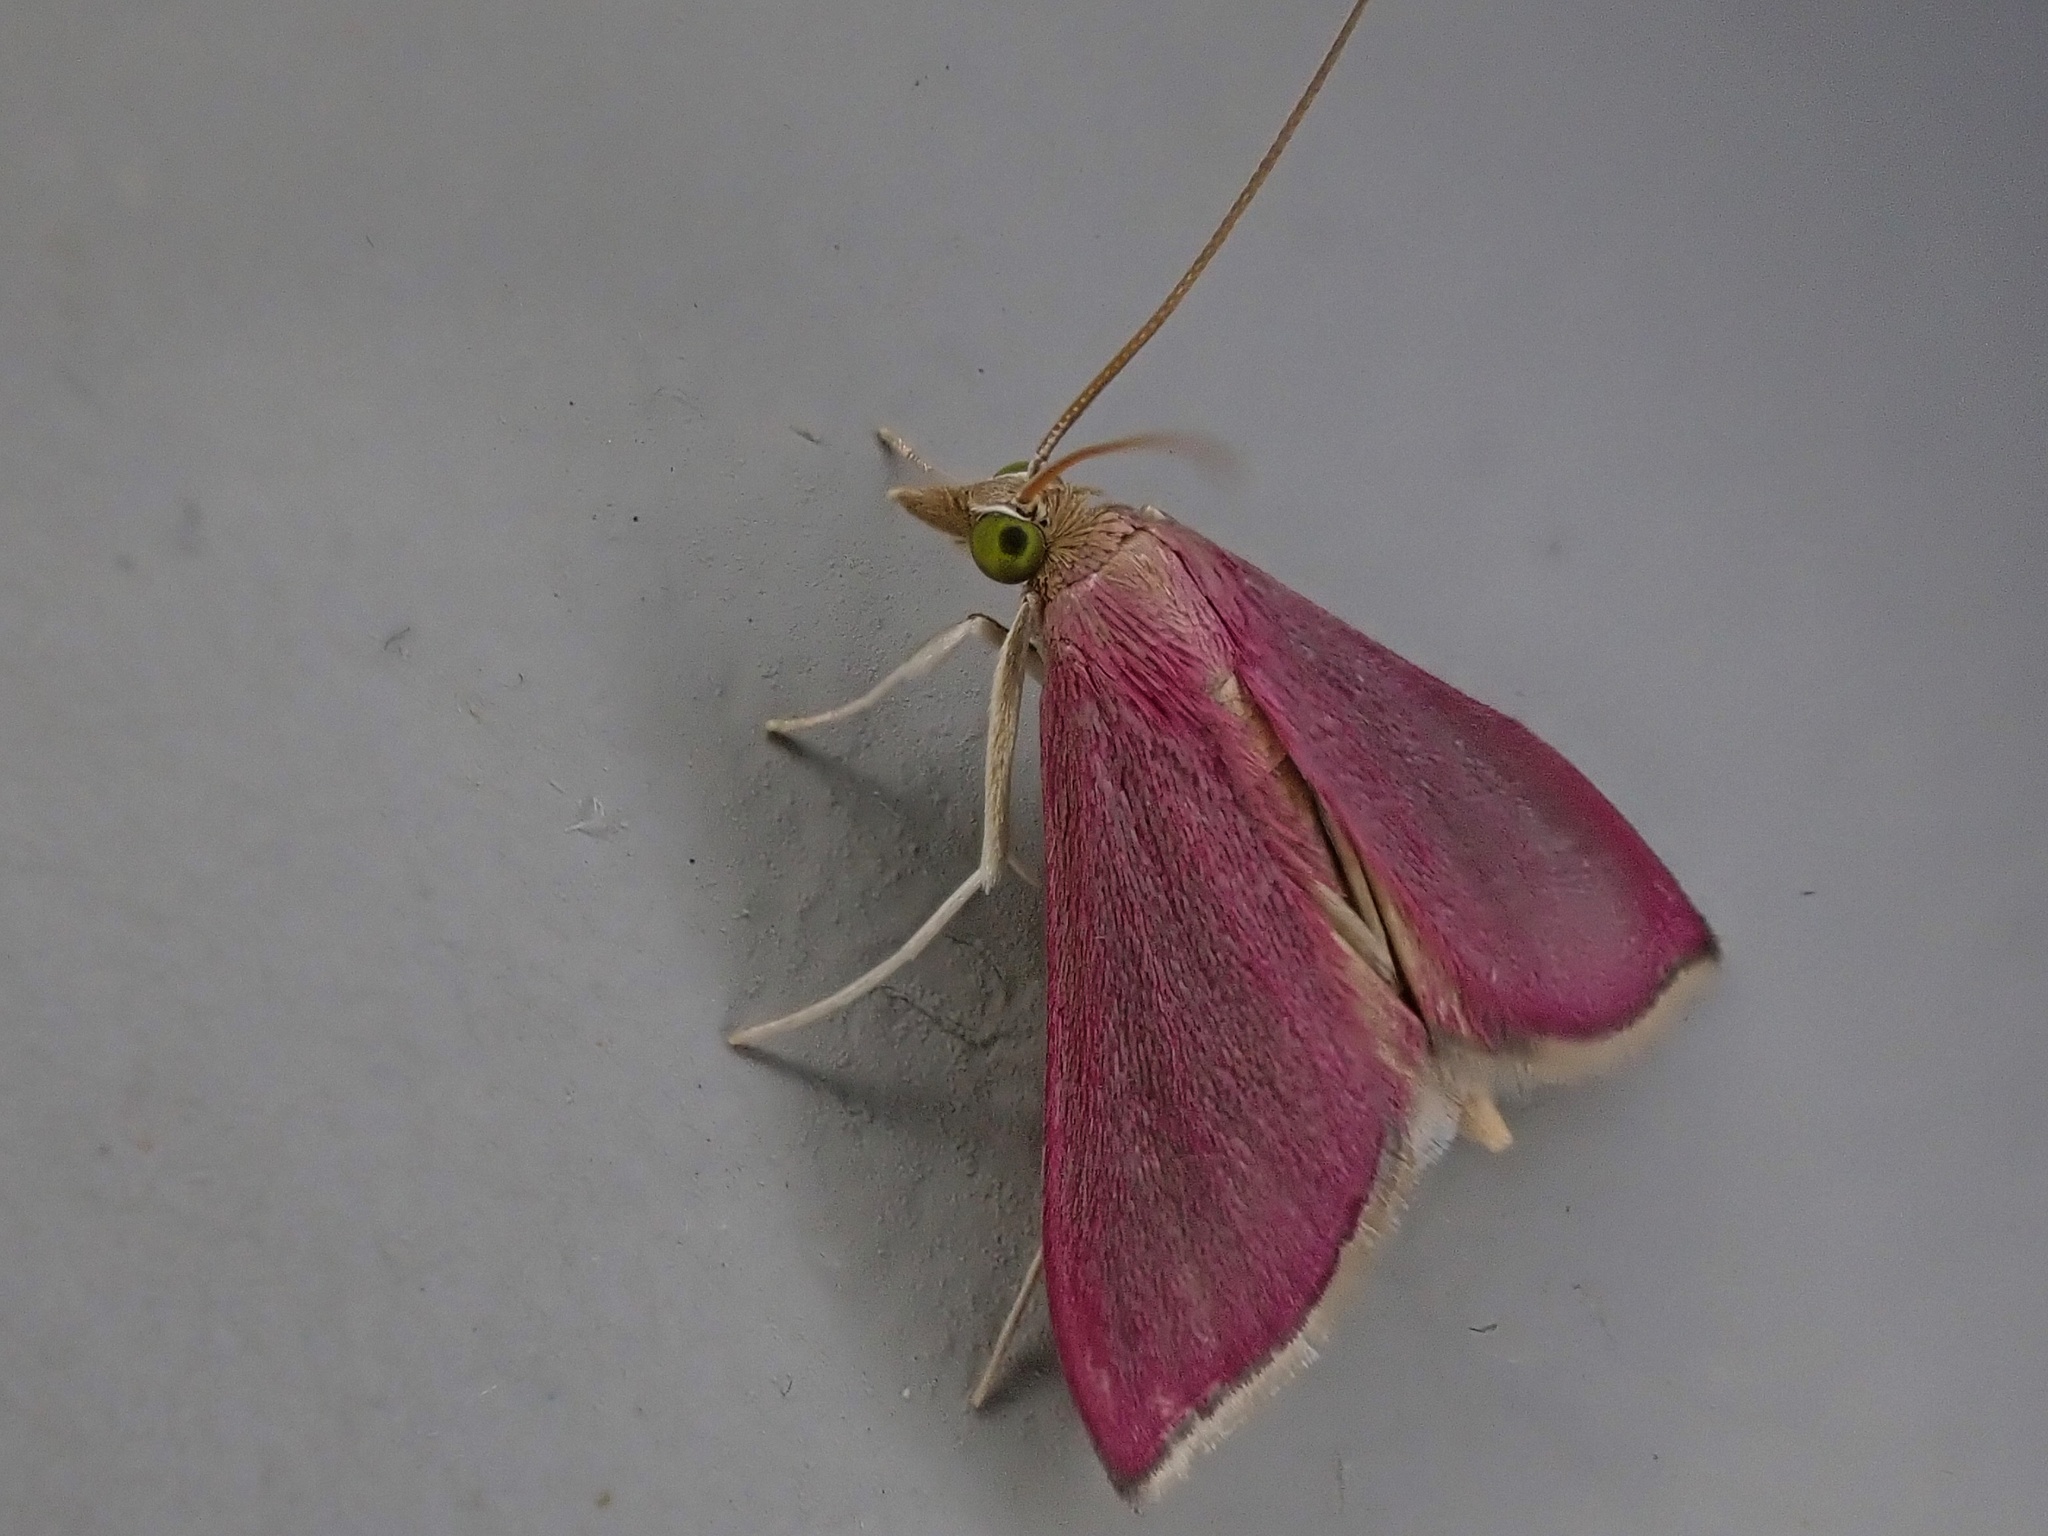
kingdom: Animalia
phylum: Arthropoda
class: Insecta
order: Lepidoptera
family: Crambidae
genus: Pyrausta
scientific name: Pyrausta inornatalis
